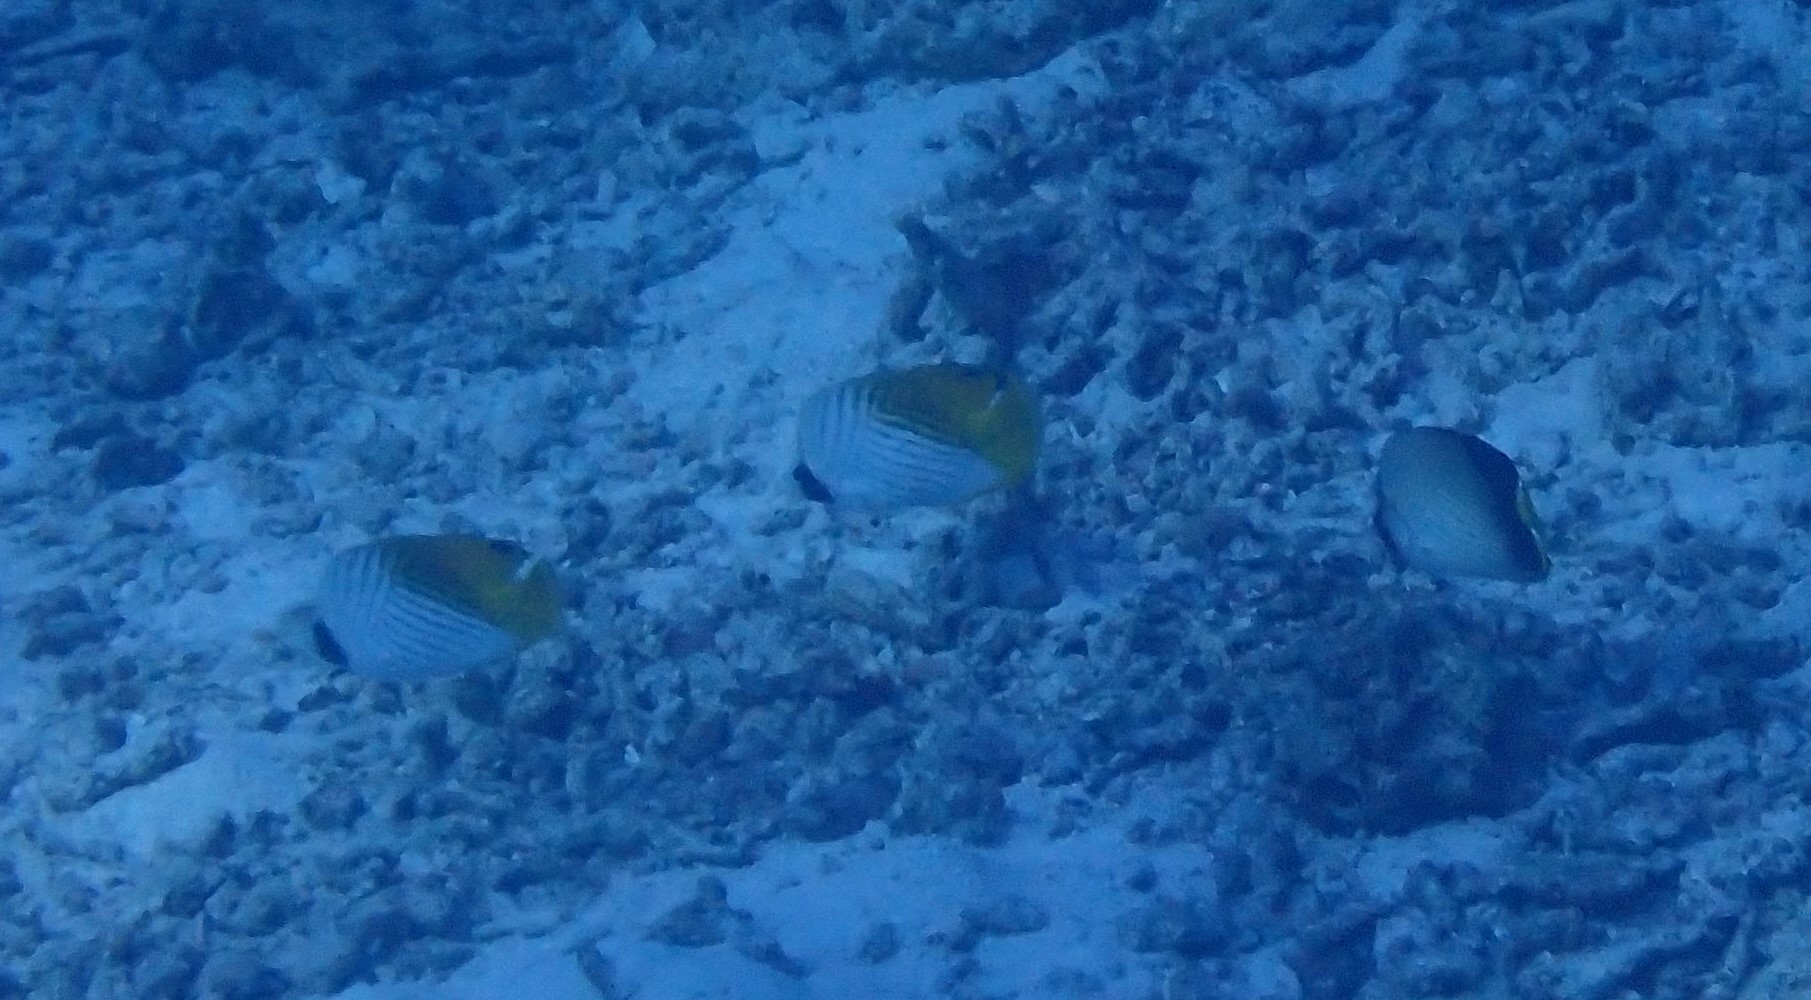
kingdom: Animalia
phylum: Chordata
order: Perciformes
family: Chaetodontidae
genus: Chaetodon
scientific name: Chaetodon decussatus
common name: Indian vagabond butterflyfish
